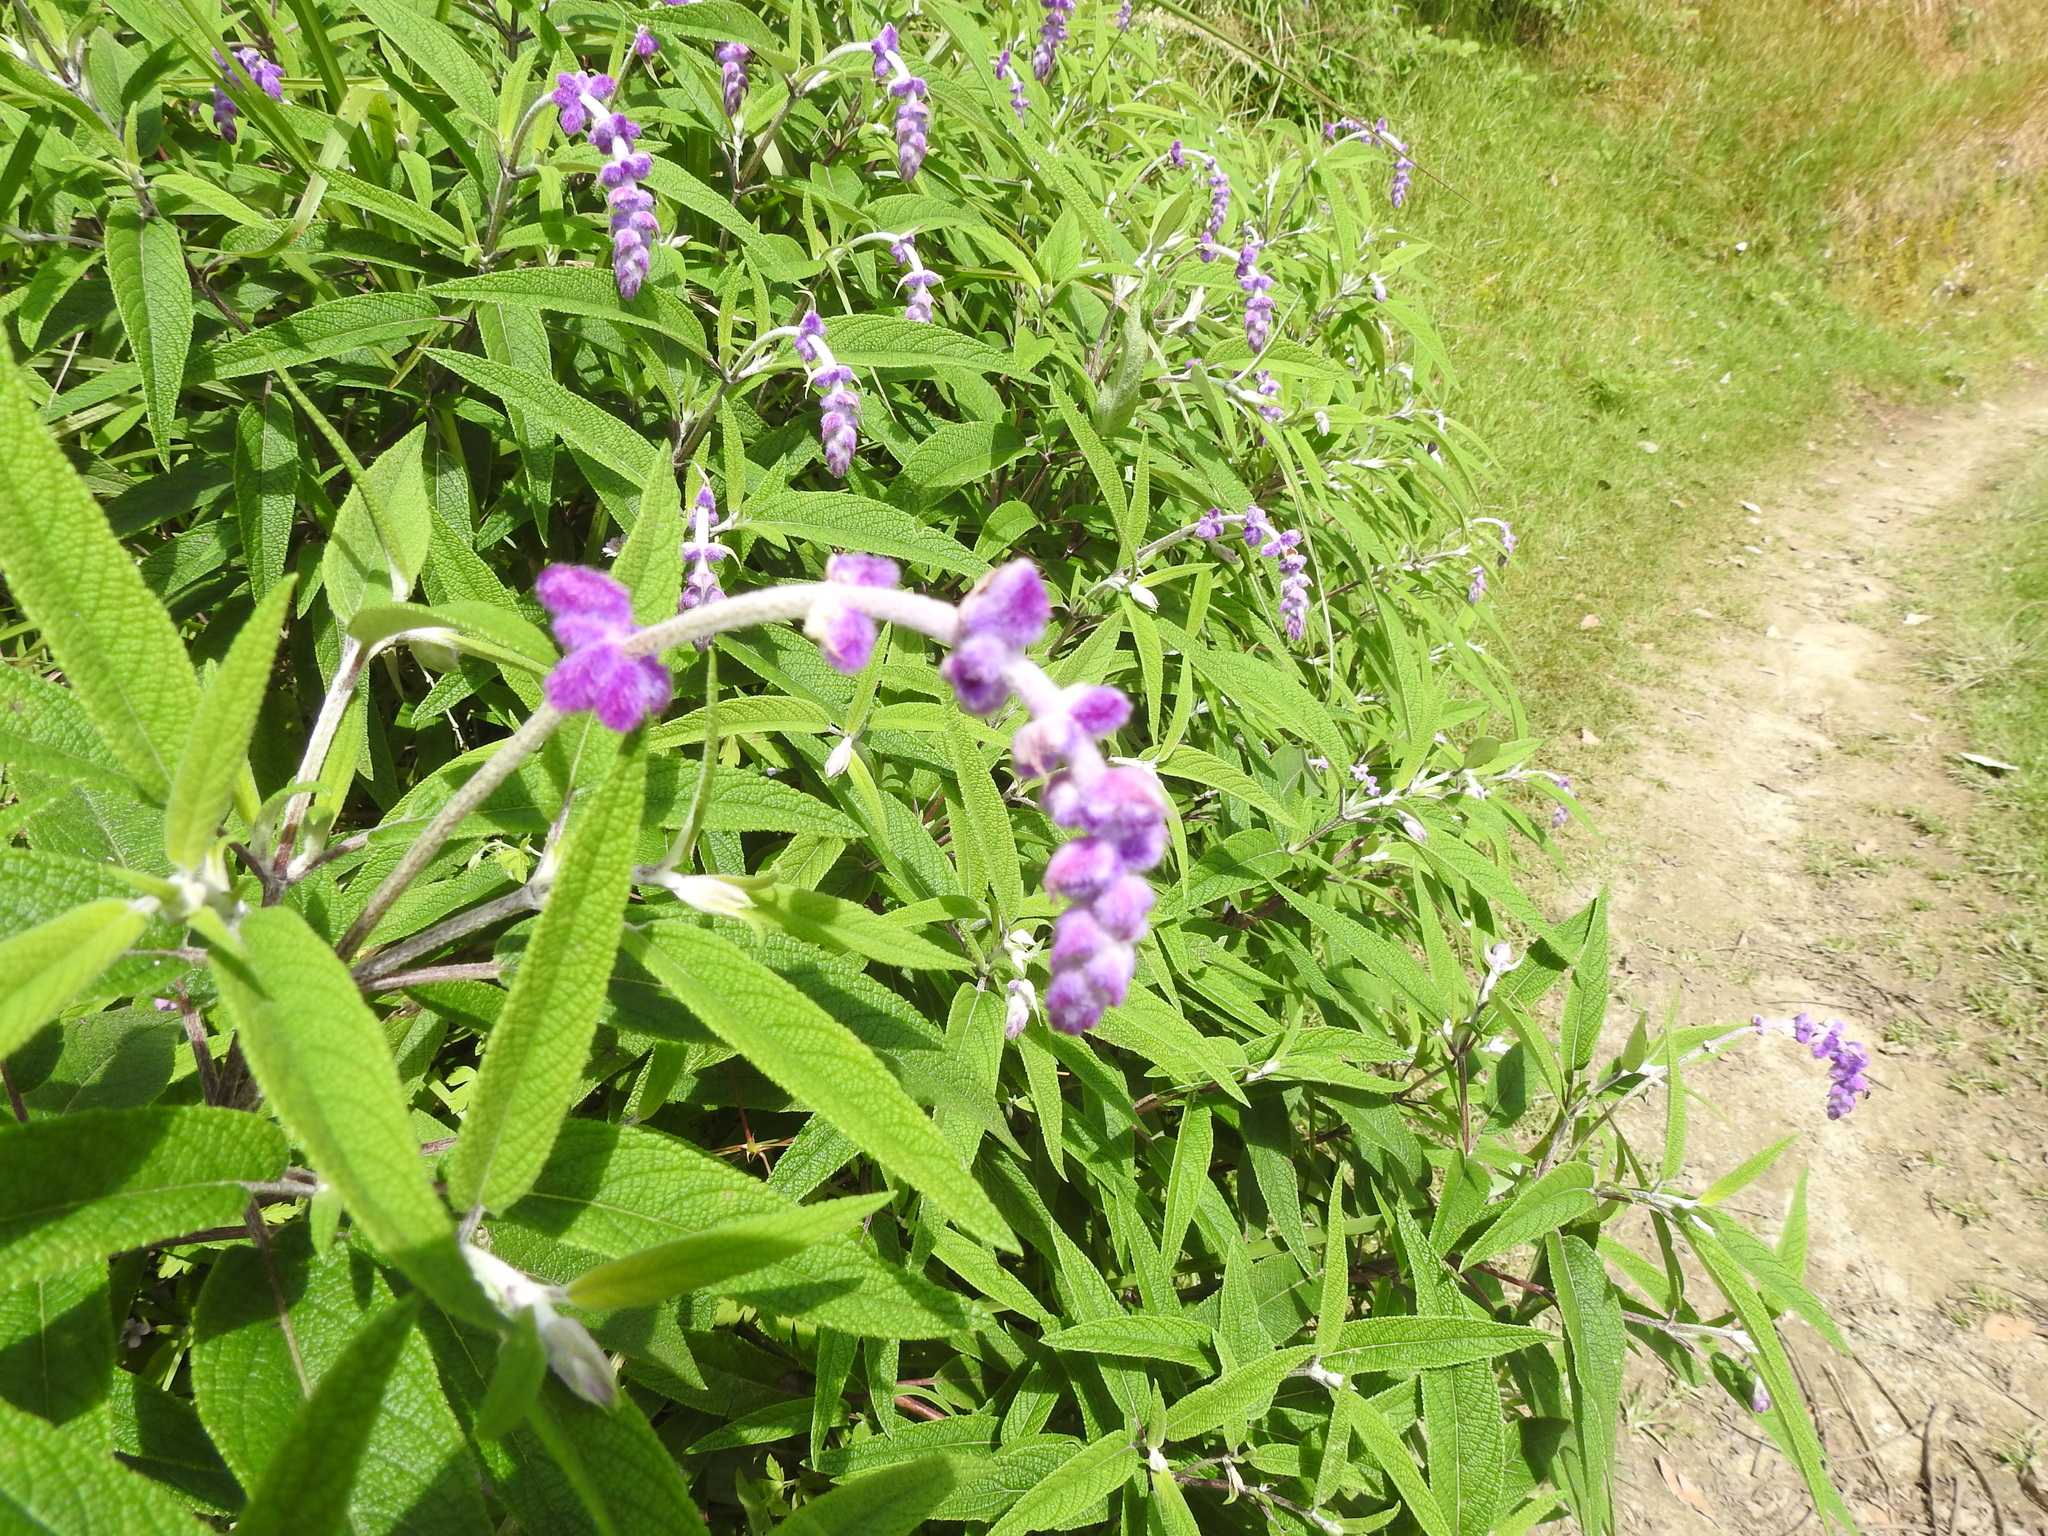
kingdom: Plantae
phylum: Tracheophyta
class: Magnoliopsida
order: Lamiales
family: Lamiaceae
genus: Salvia
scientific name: Salvia leucantha
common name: Mexican bush sage
